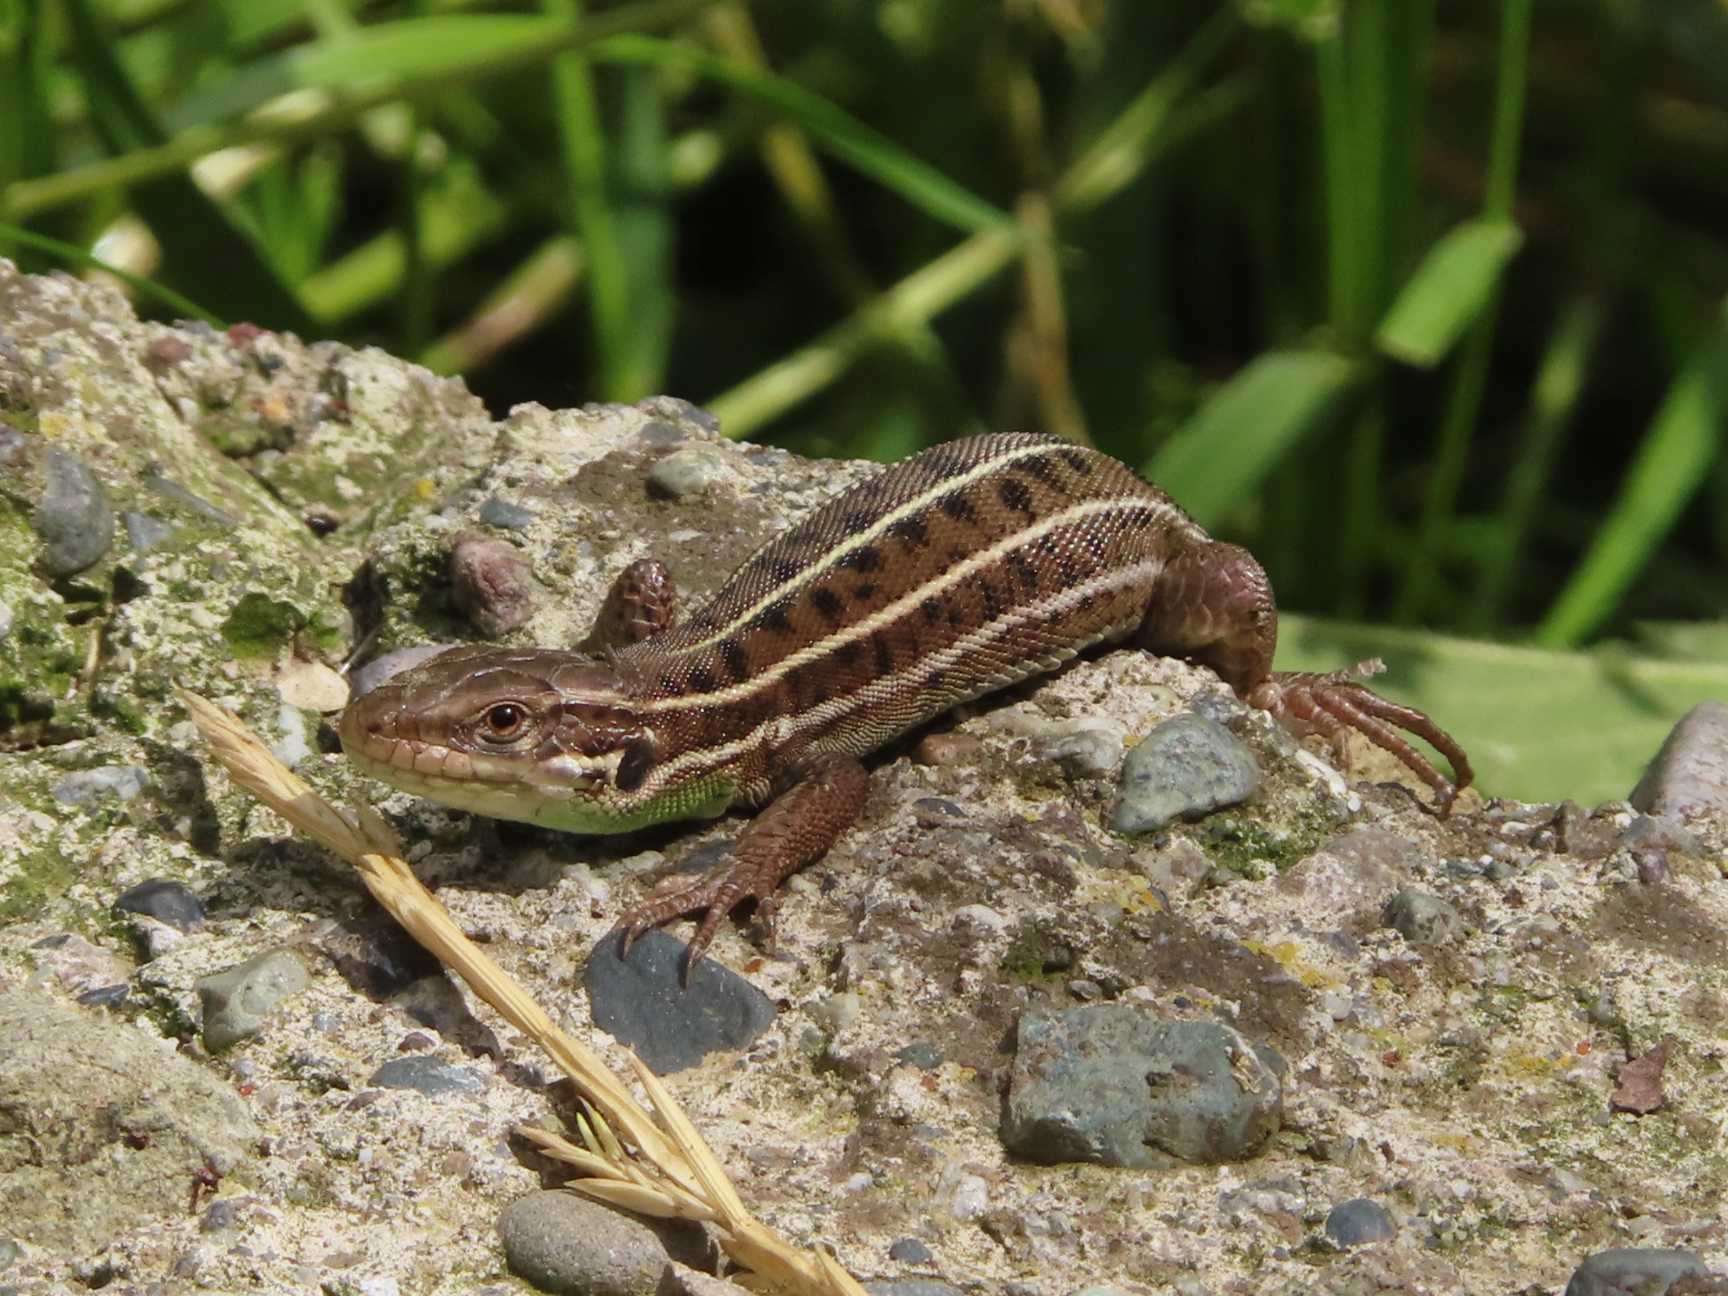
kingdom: Animalia
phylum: Chordata
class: Squamata
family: Lacertidae
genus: Lacerta
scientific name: Lacerta strigata
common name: Caspian green lizard
